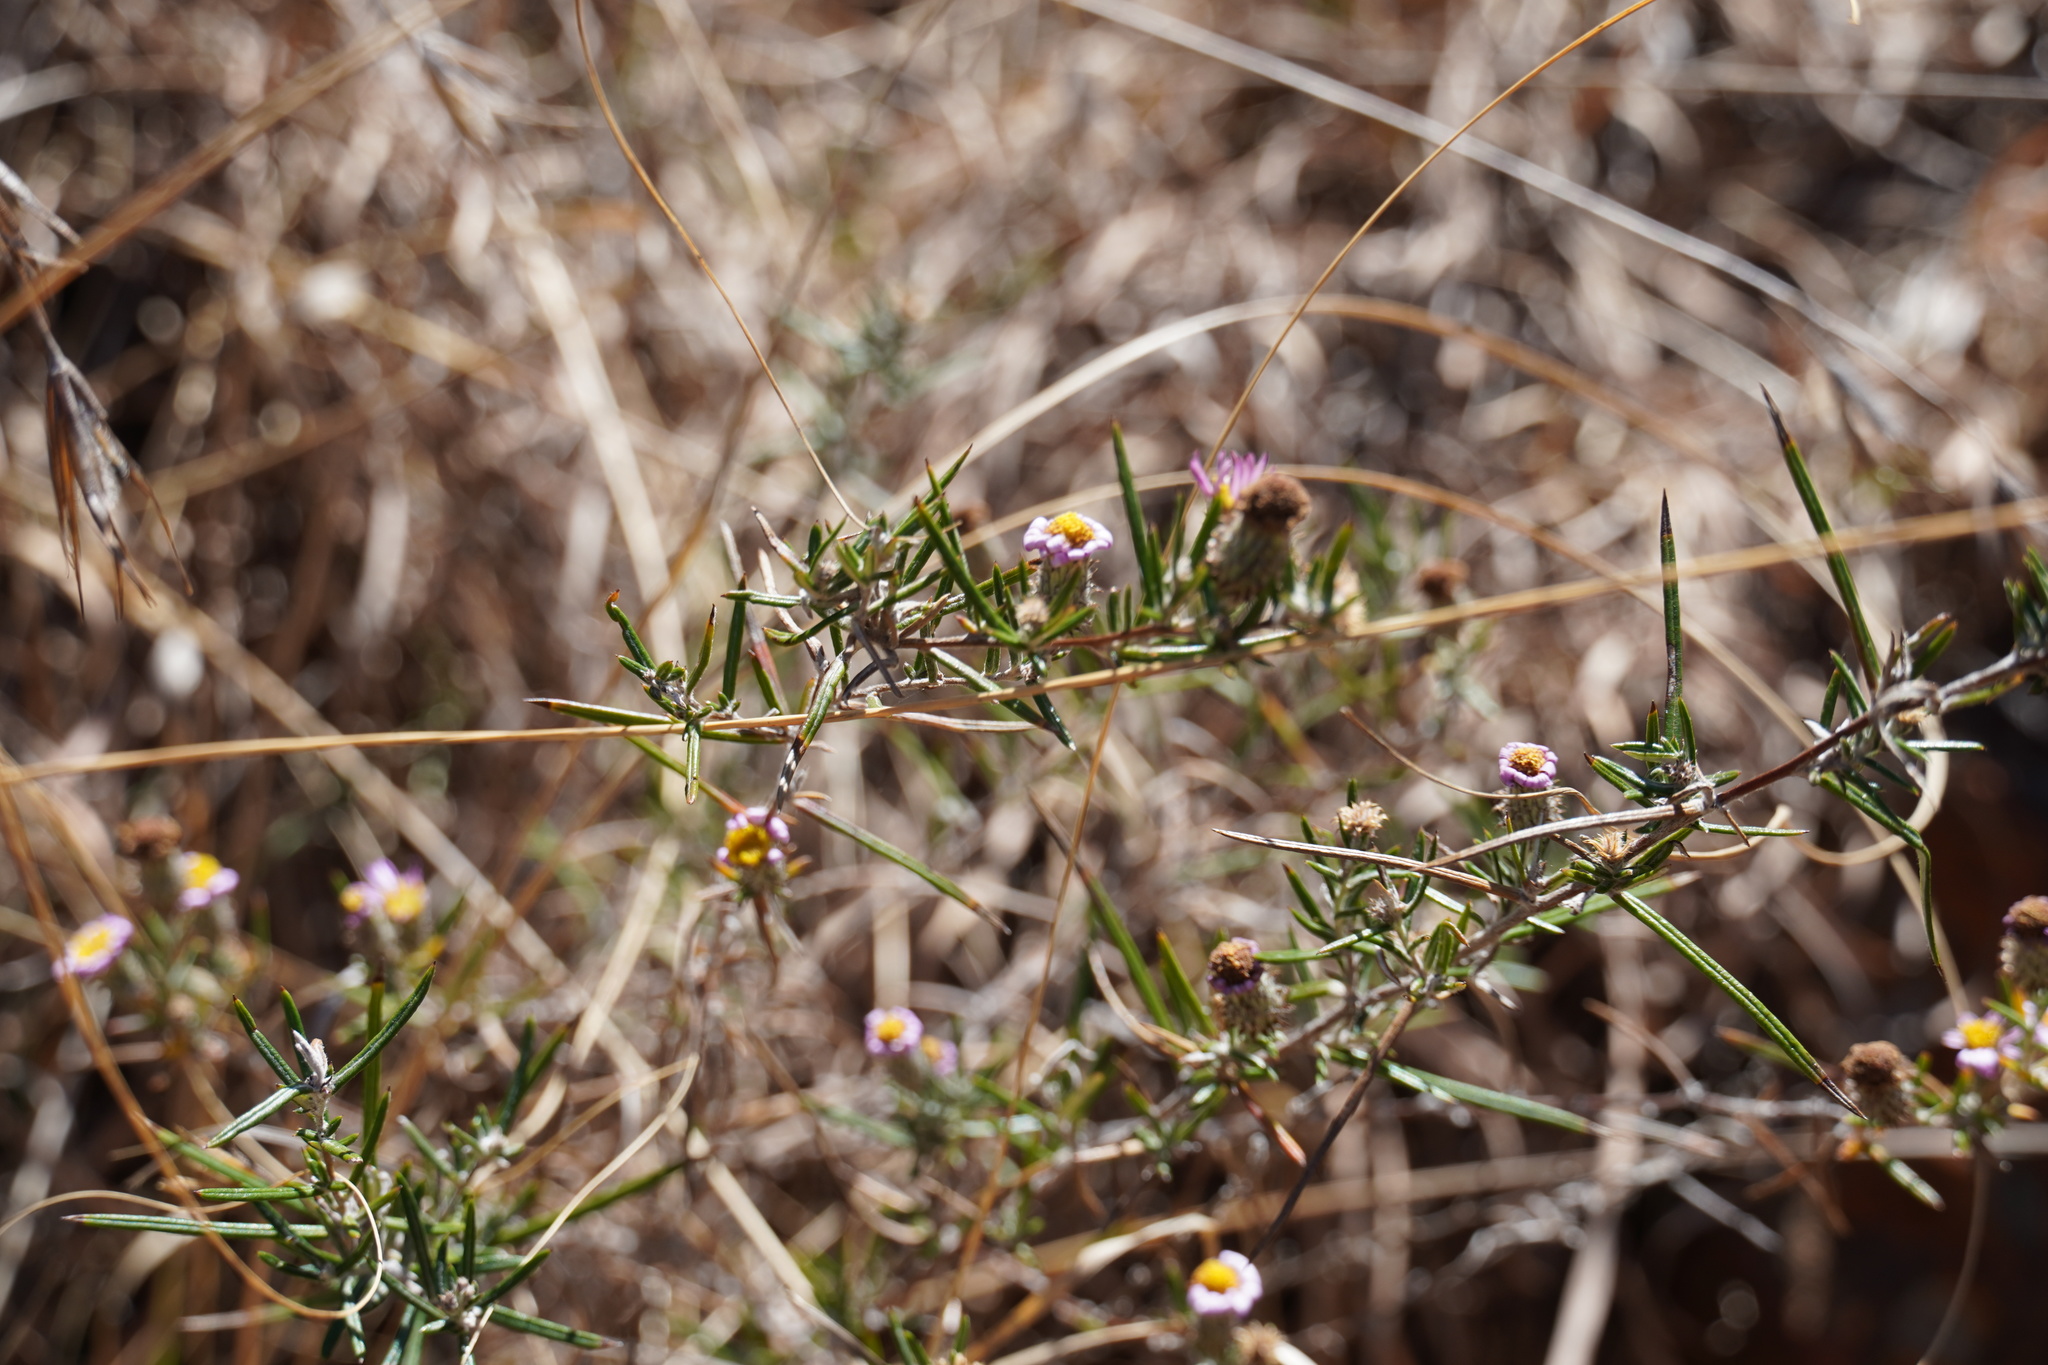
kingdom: Plantae
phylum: Tracheophyta
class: Magnoliopsida
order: Asterales
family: Asteraceae
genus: Athrixia
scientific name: Athrixia elata
